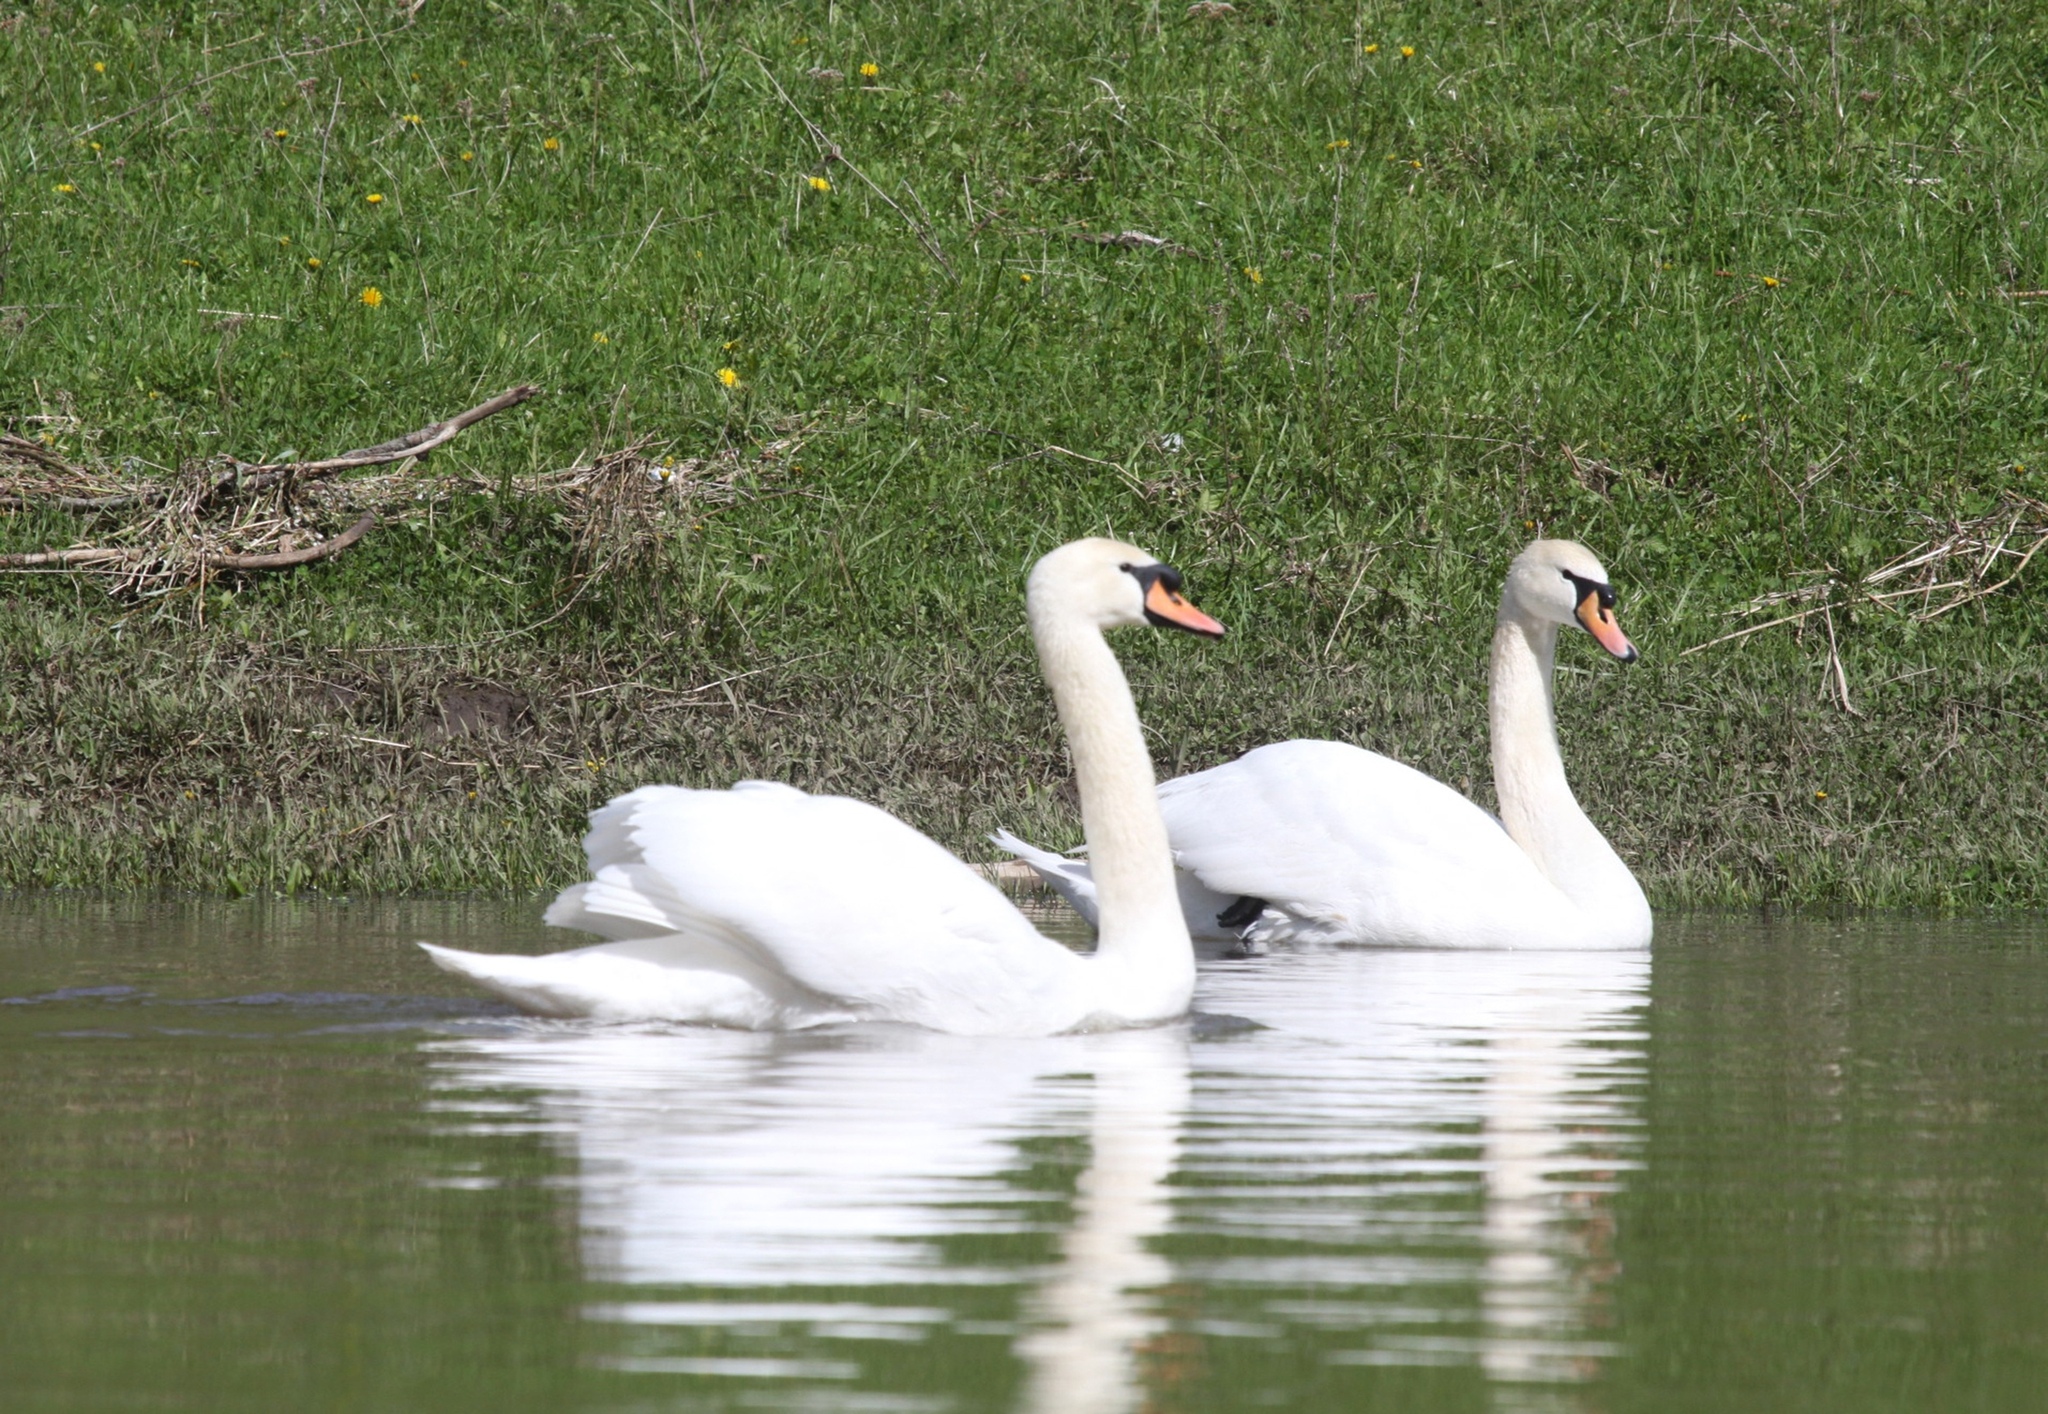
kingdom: Animalia
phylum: Chordata
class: Aves
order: Anseriformes
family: Anatidae
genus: Cygnus
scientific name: Cygnus olor
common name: Mute swan
